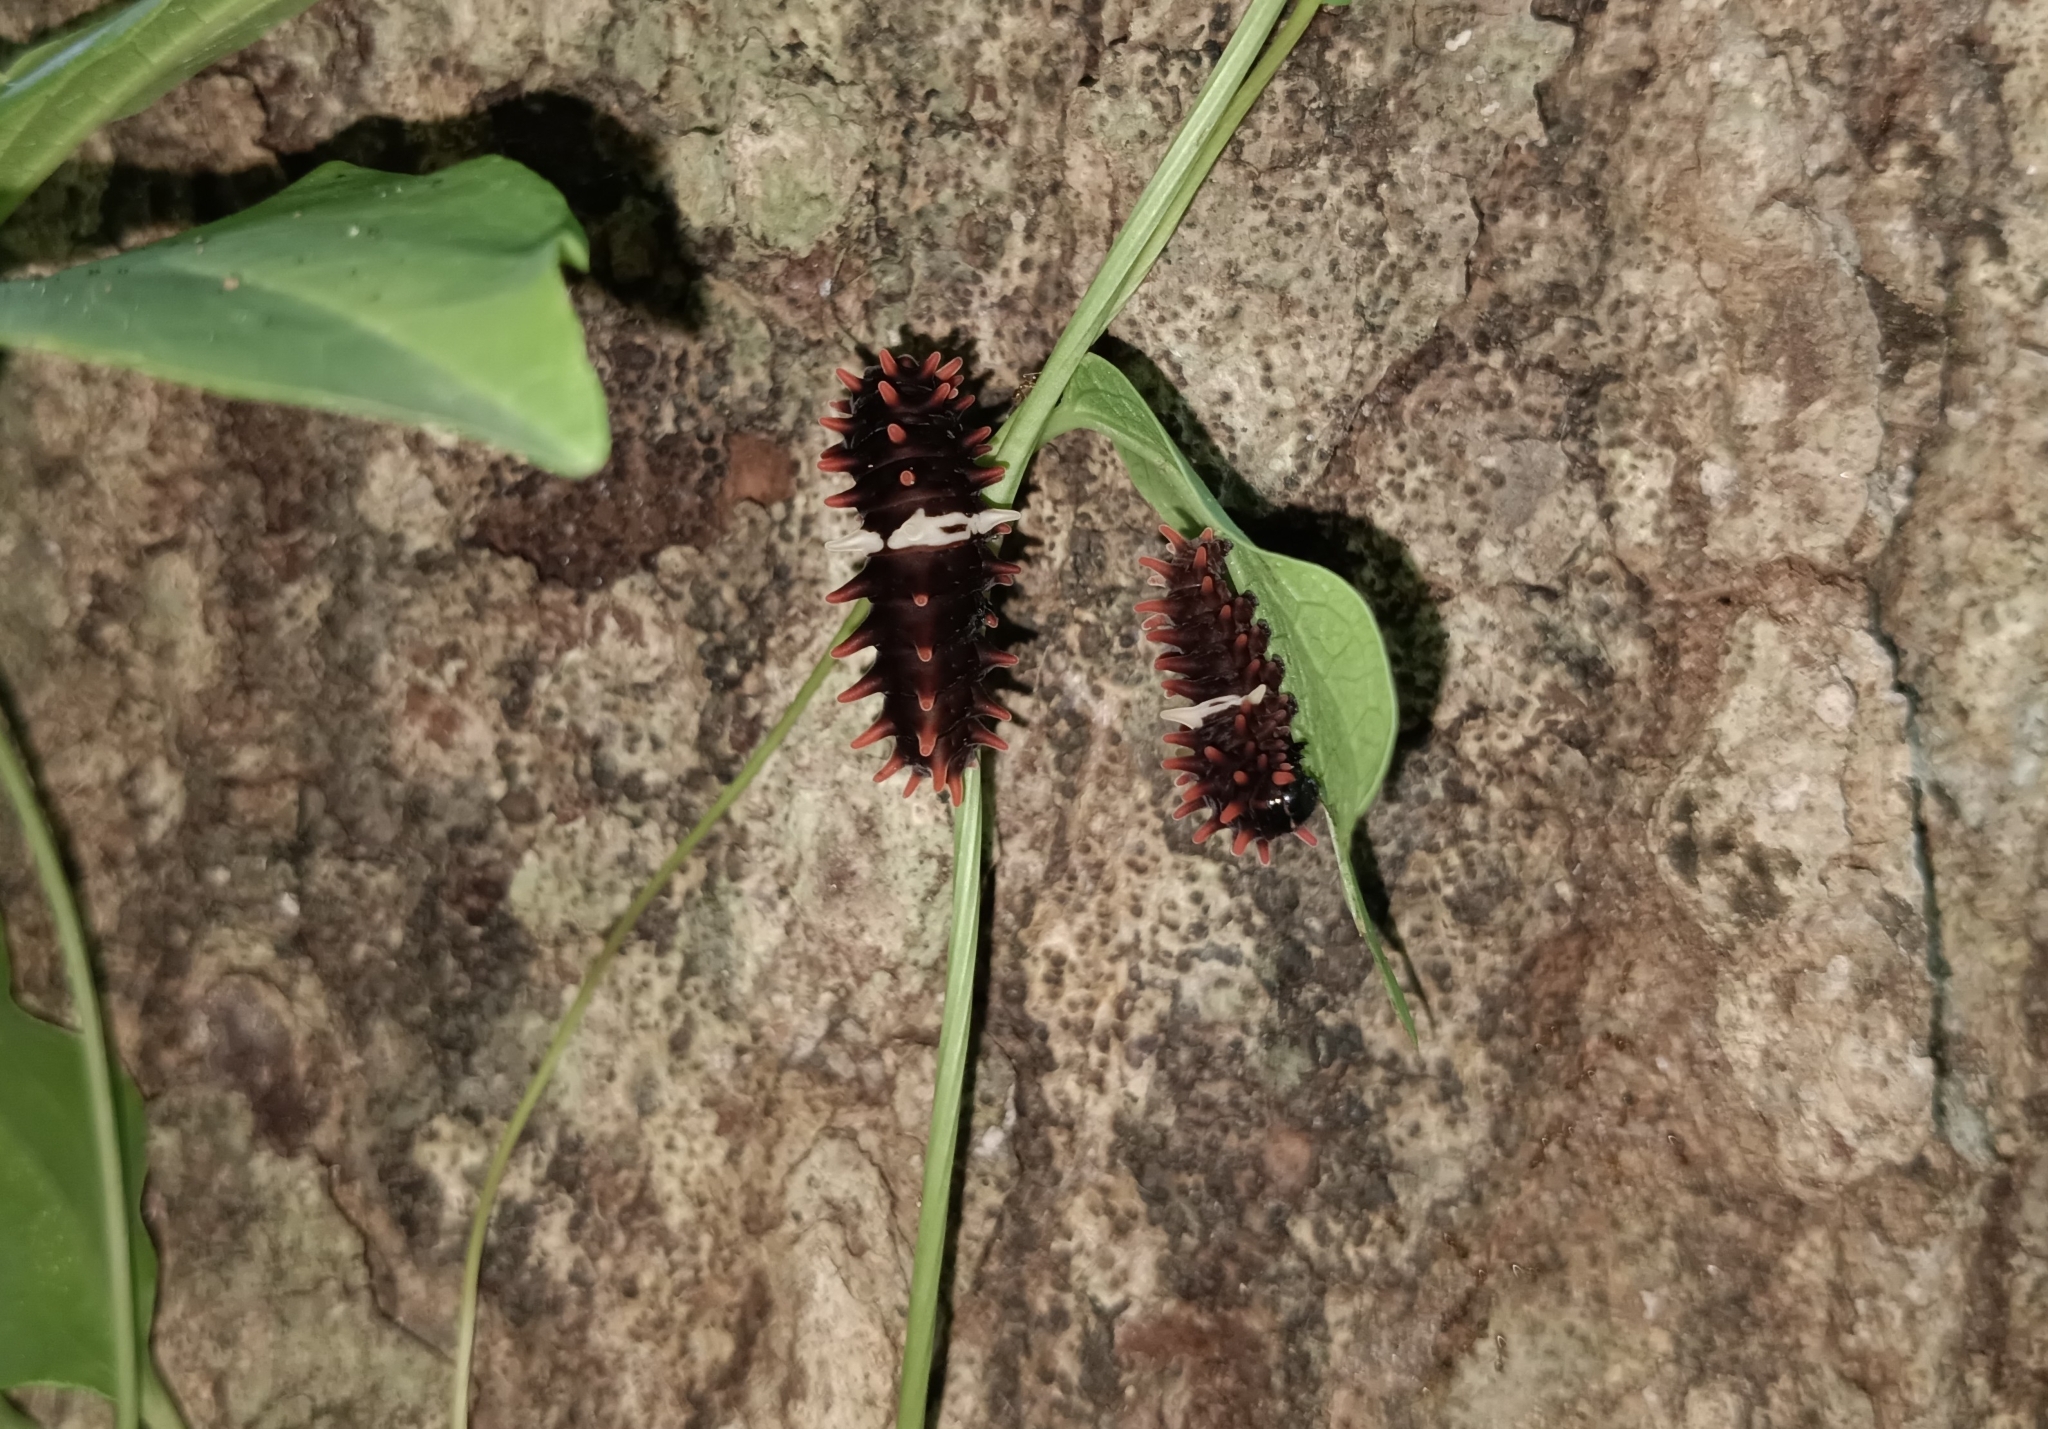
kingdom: Animalia
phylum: Arthropoda
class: Insecta
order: Lepidoptera
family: Papilionidae
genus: Pachliopta
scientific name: Pachliopta aristolochiae
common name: Common rose
